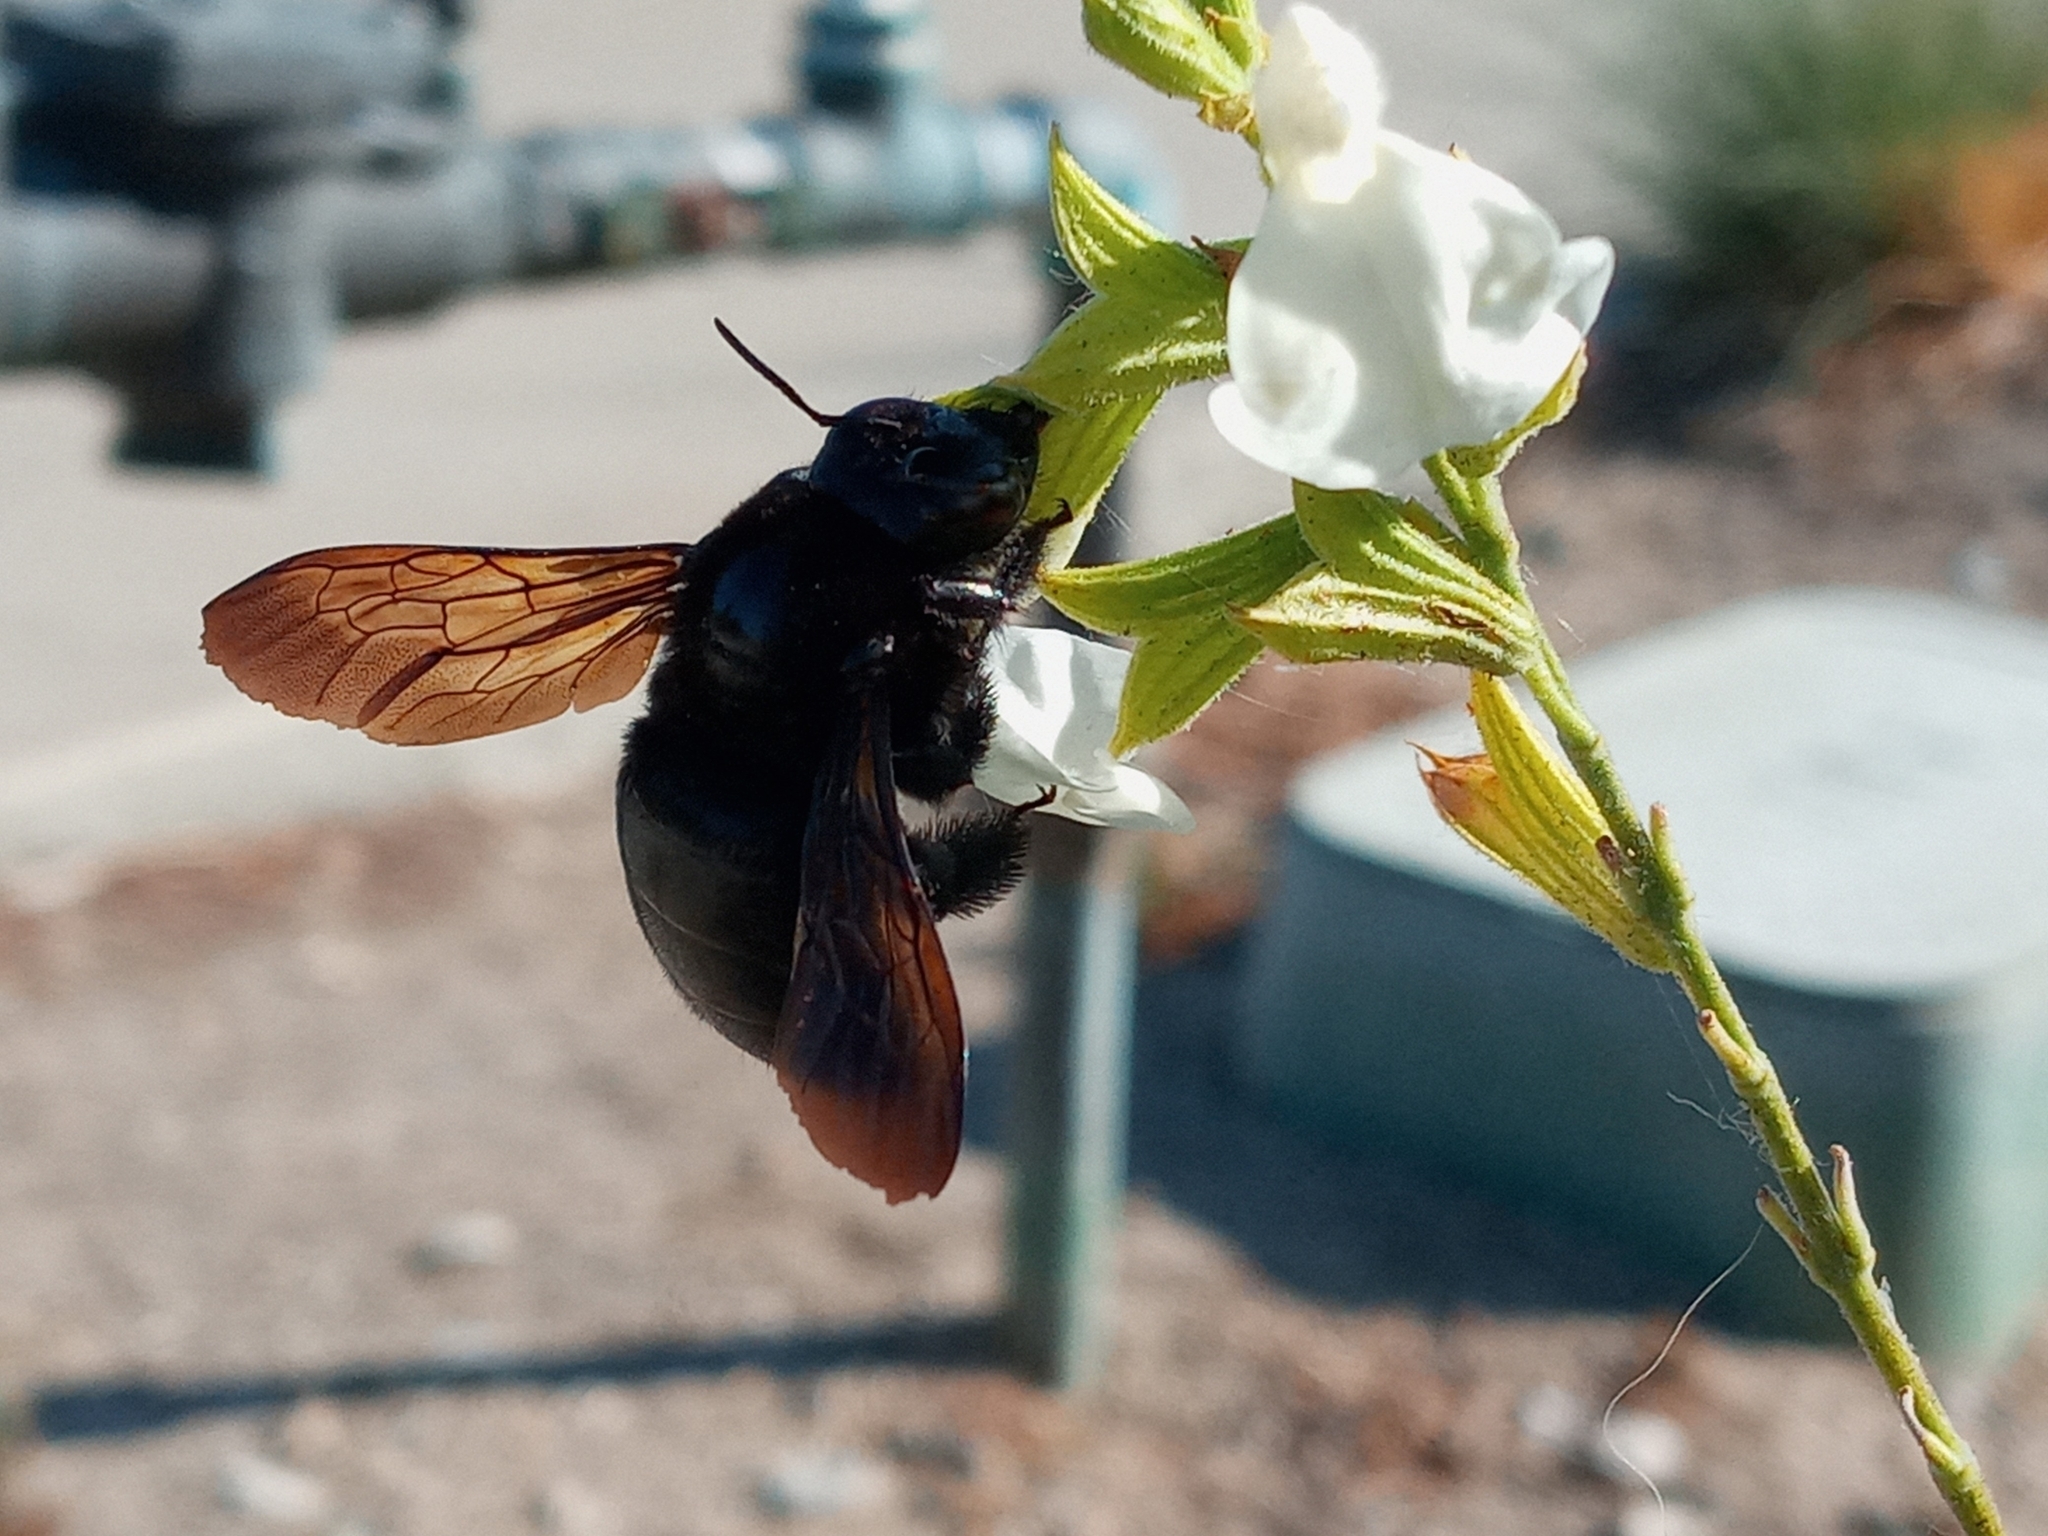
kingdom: Animalia
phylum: Arthropoda
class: Insecta
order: Hymenoptera
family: Apidae
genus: Xylocopa
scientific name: Xylocopa sonorina
